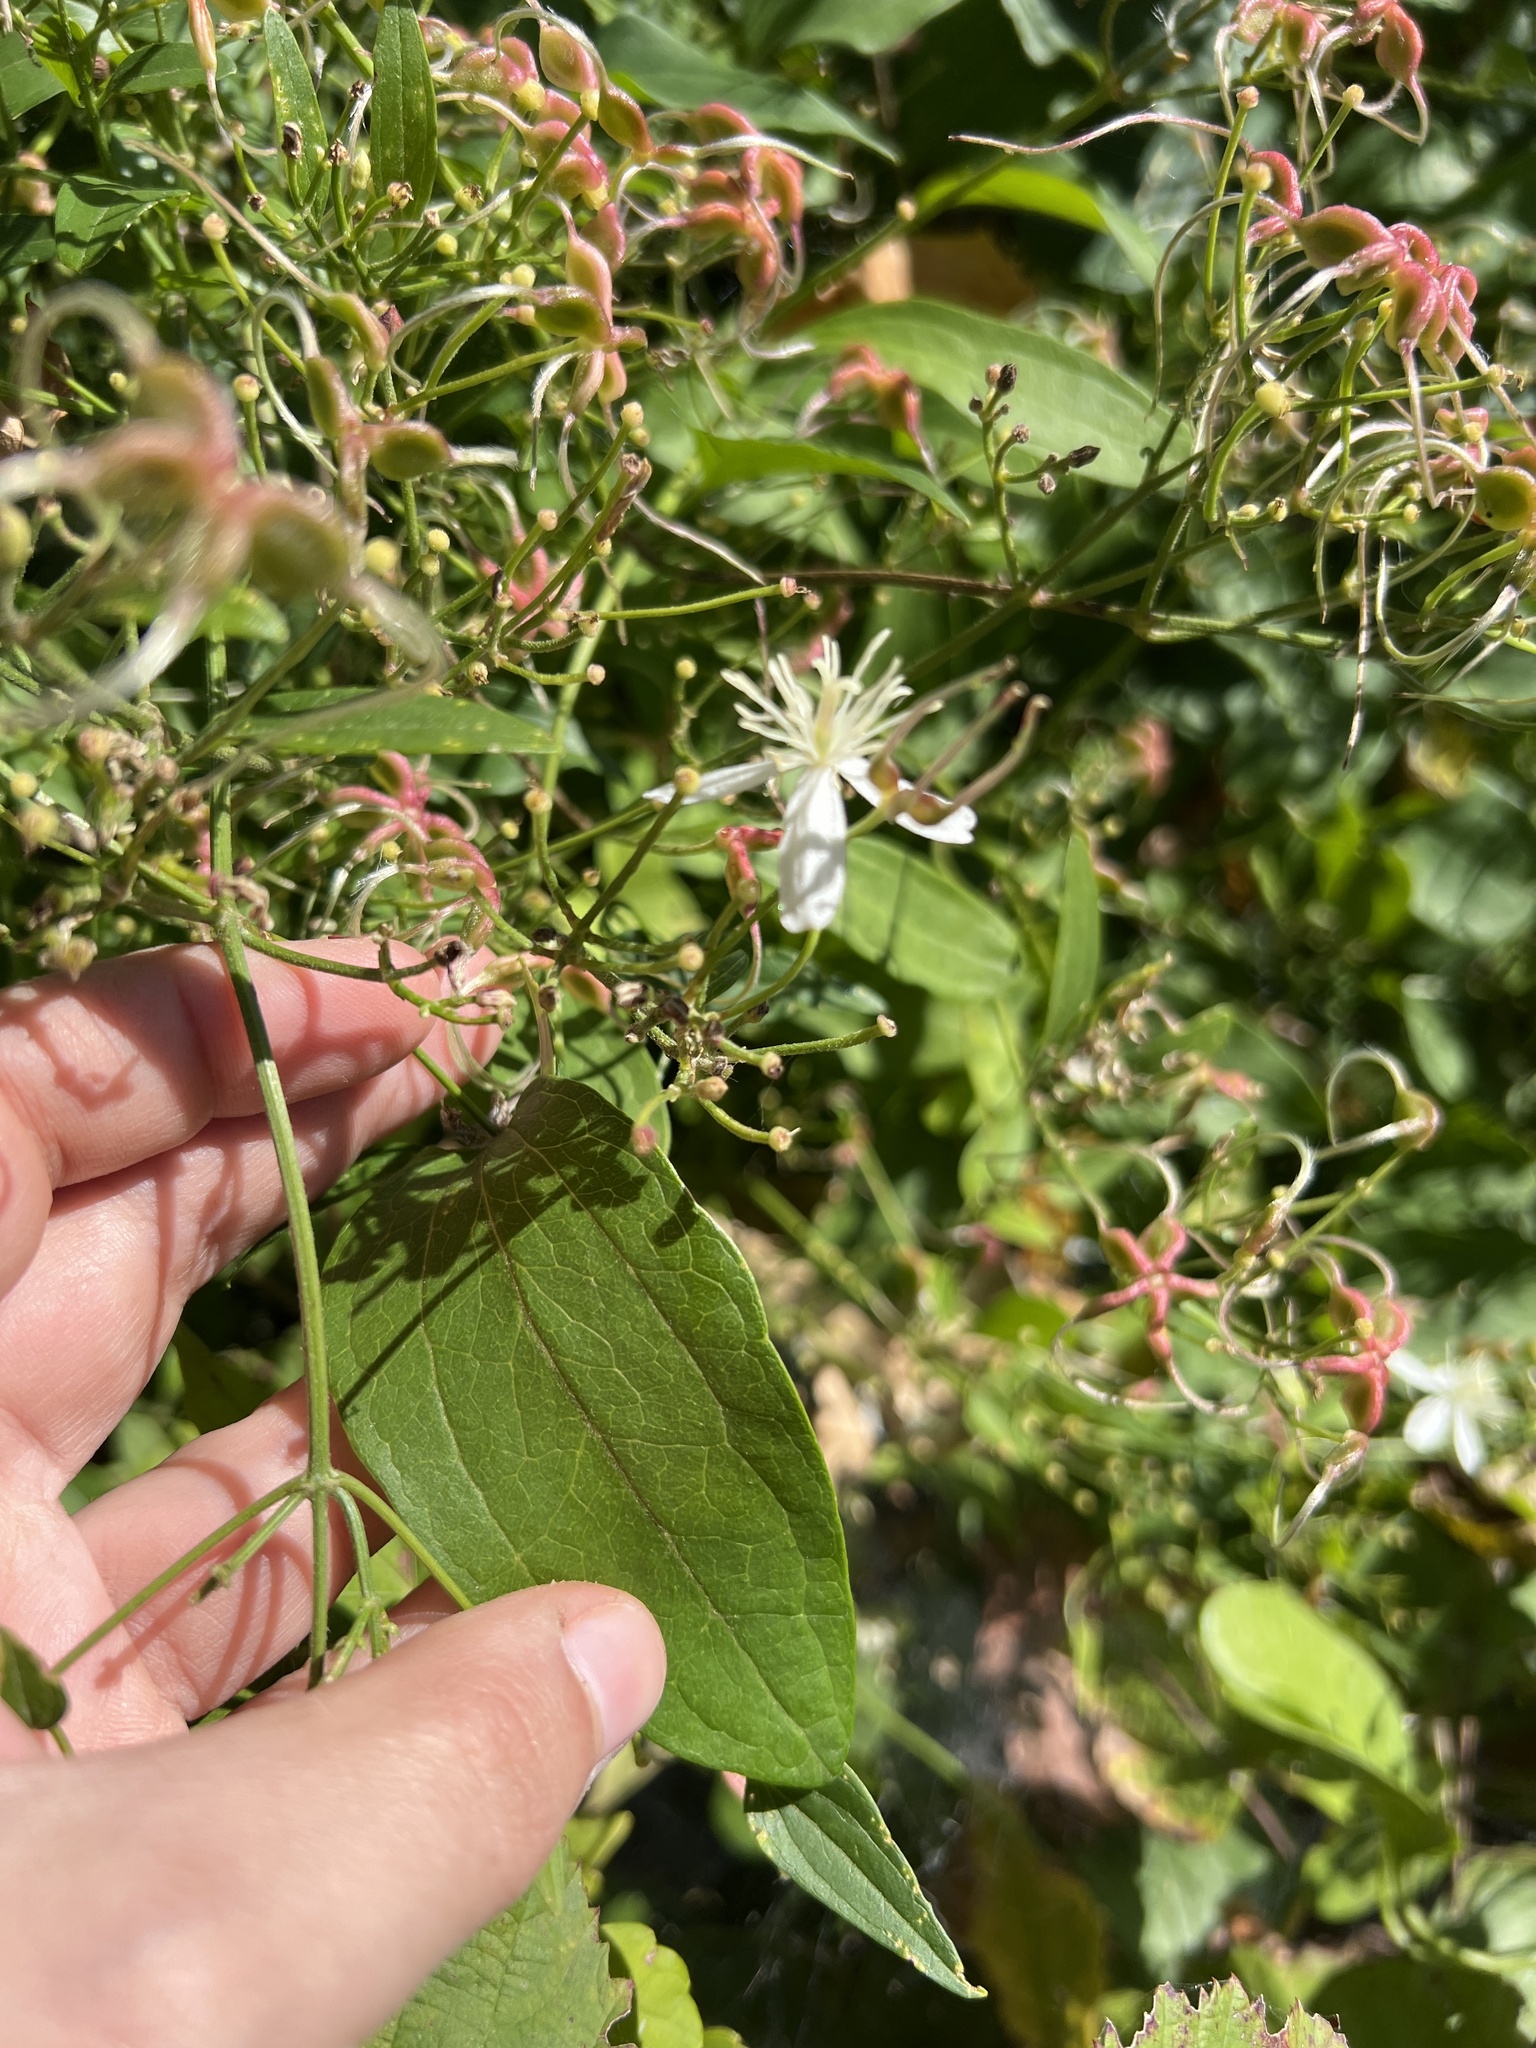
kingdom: Plantae
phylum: Tracheophyta
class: Magnoliopsida
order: Ranunculales
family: Ranunculaceae
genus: Clematis
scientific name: Clematis terniflora
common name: Sweet autumn clematis
